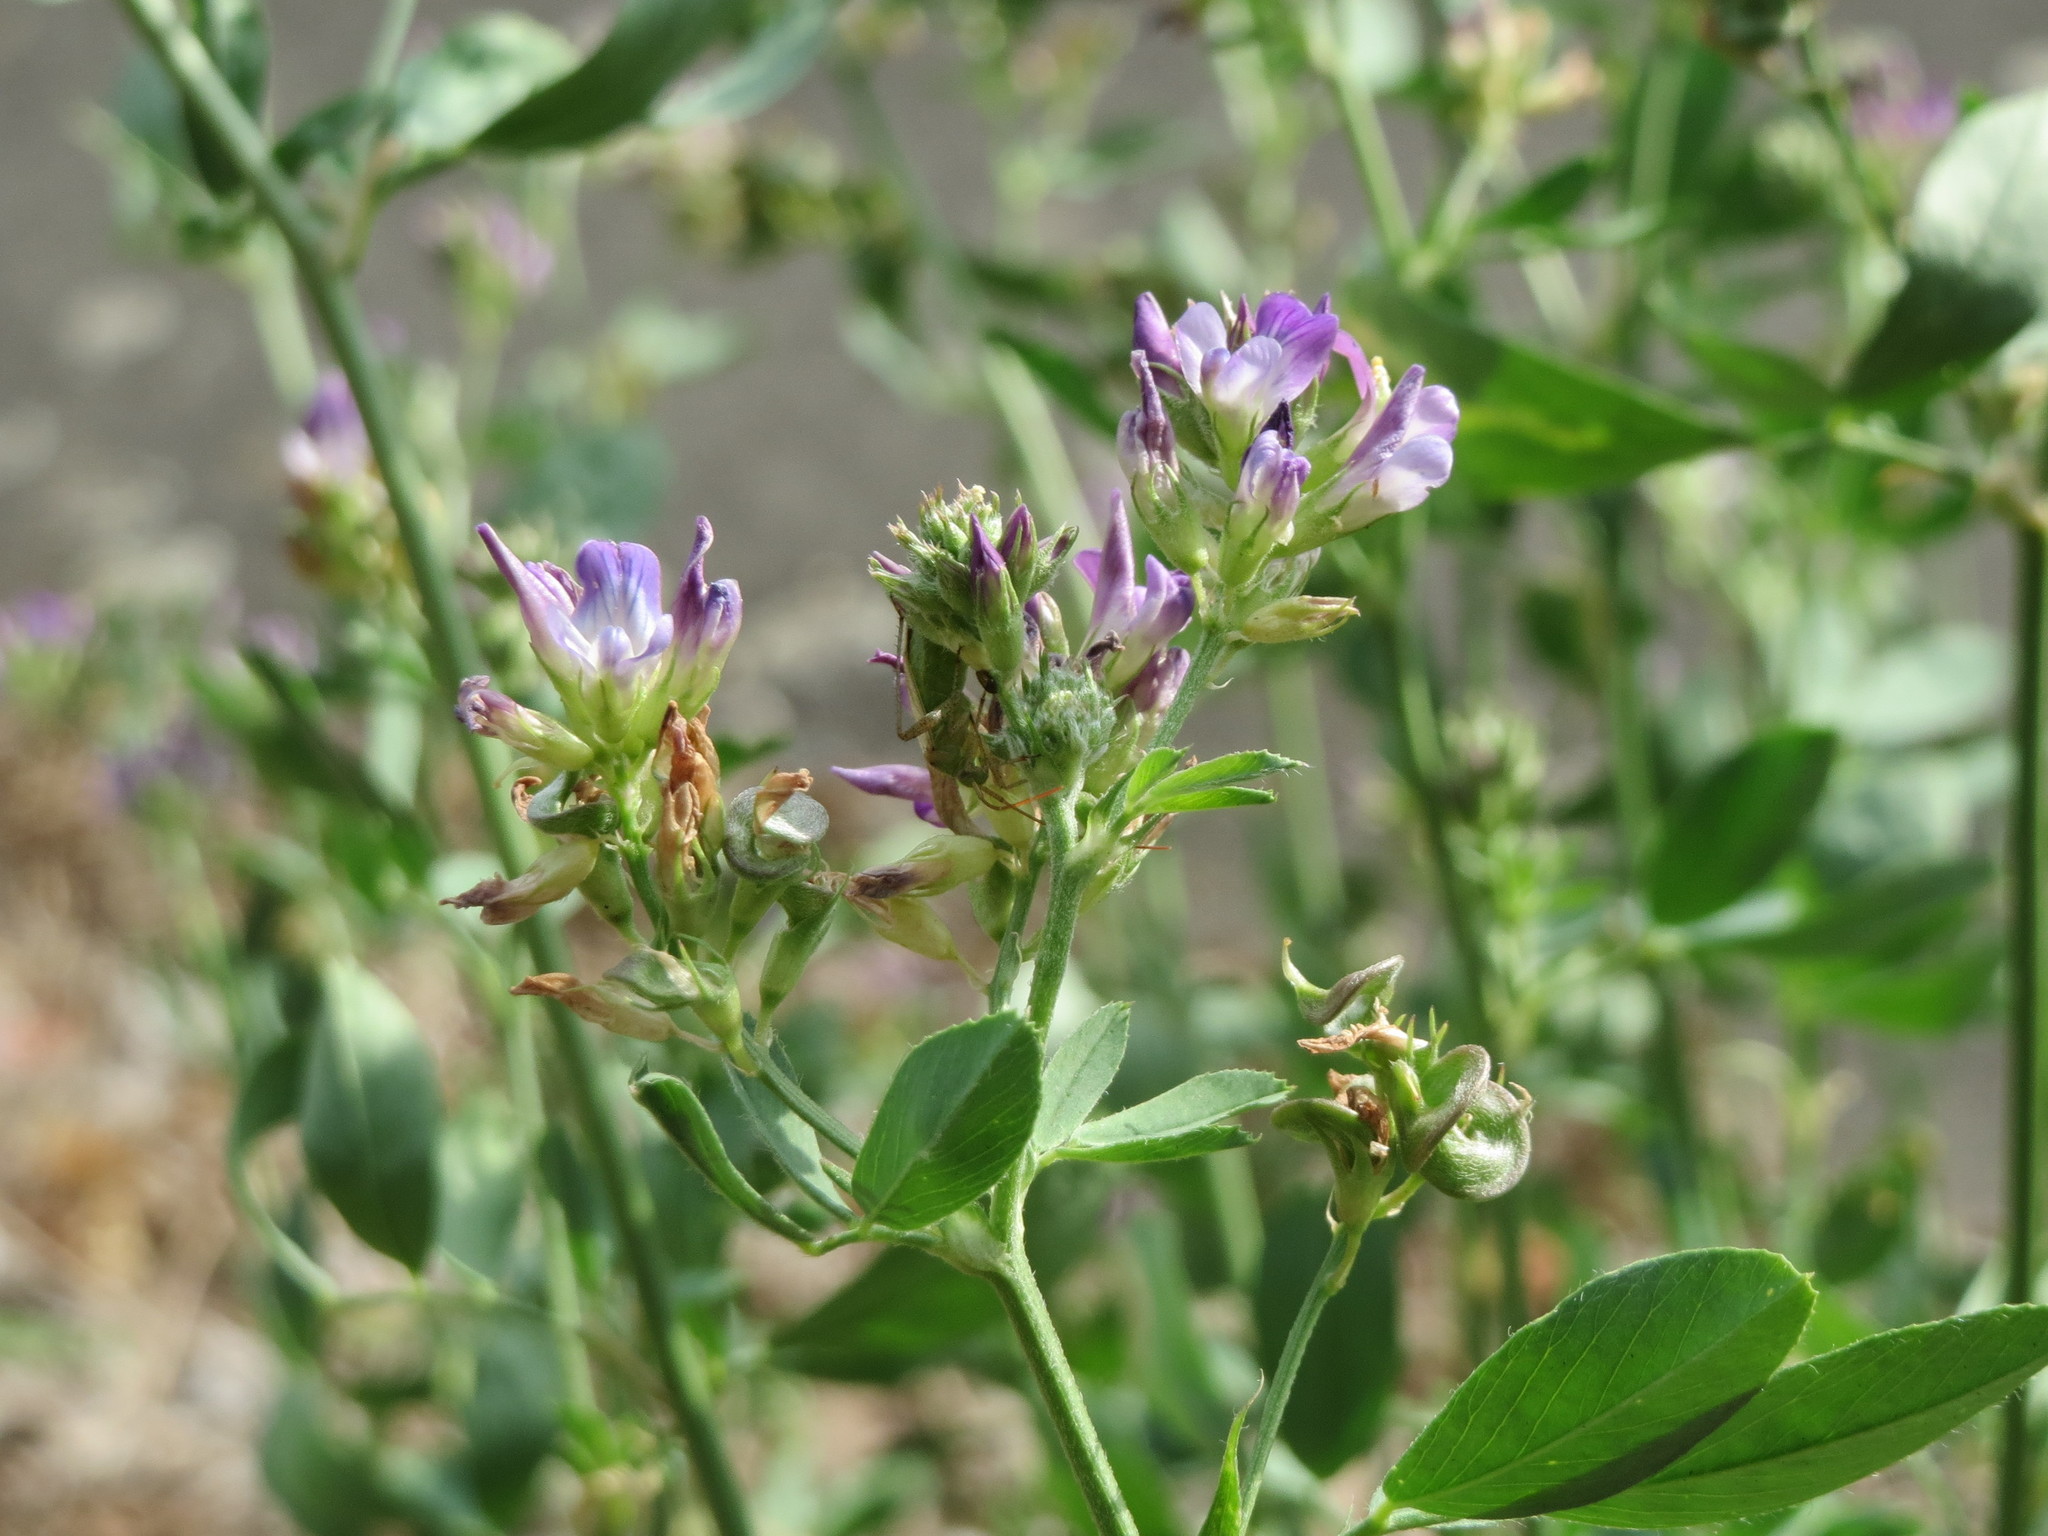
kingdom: Plantae
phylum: Tracheophyta
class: Magnoliopsida
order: Fabales
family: Fabaceae
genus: Medicago
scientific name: Medicago sativa
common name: Alfalfa
